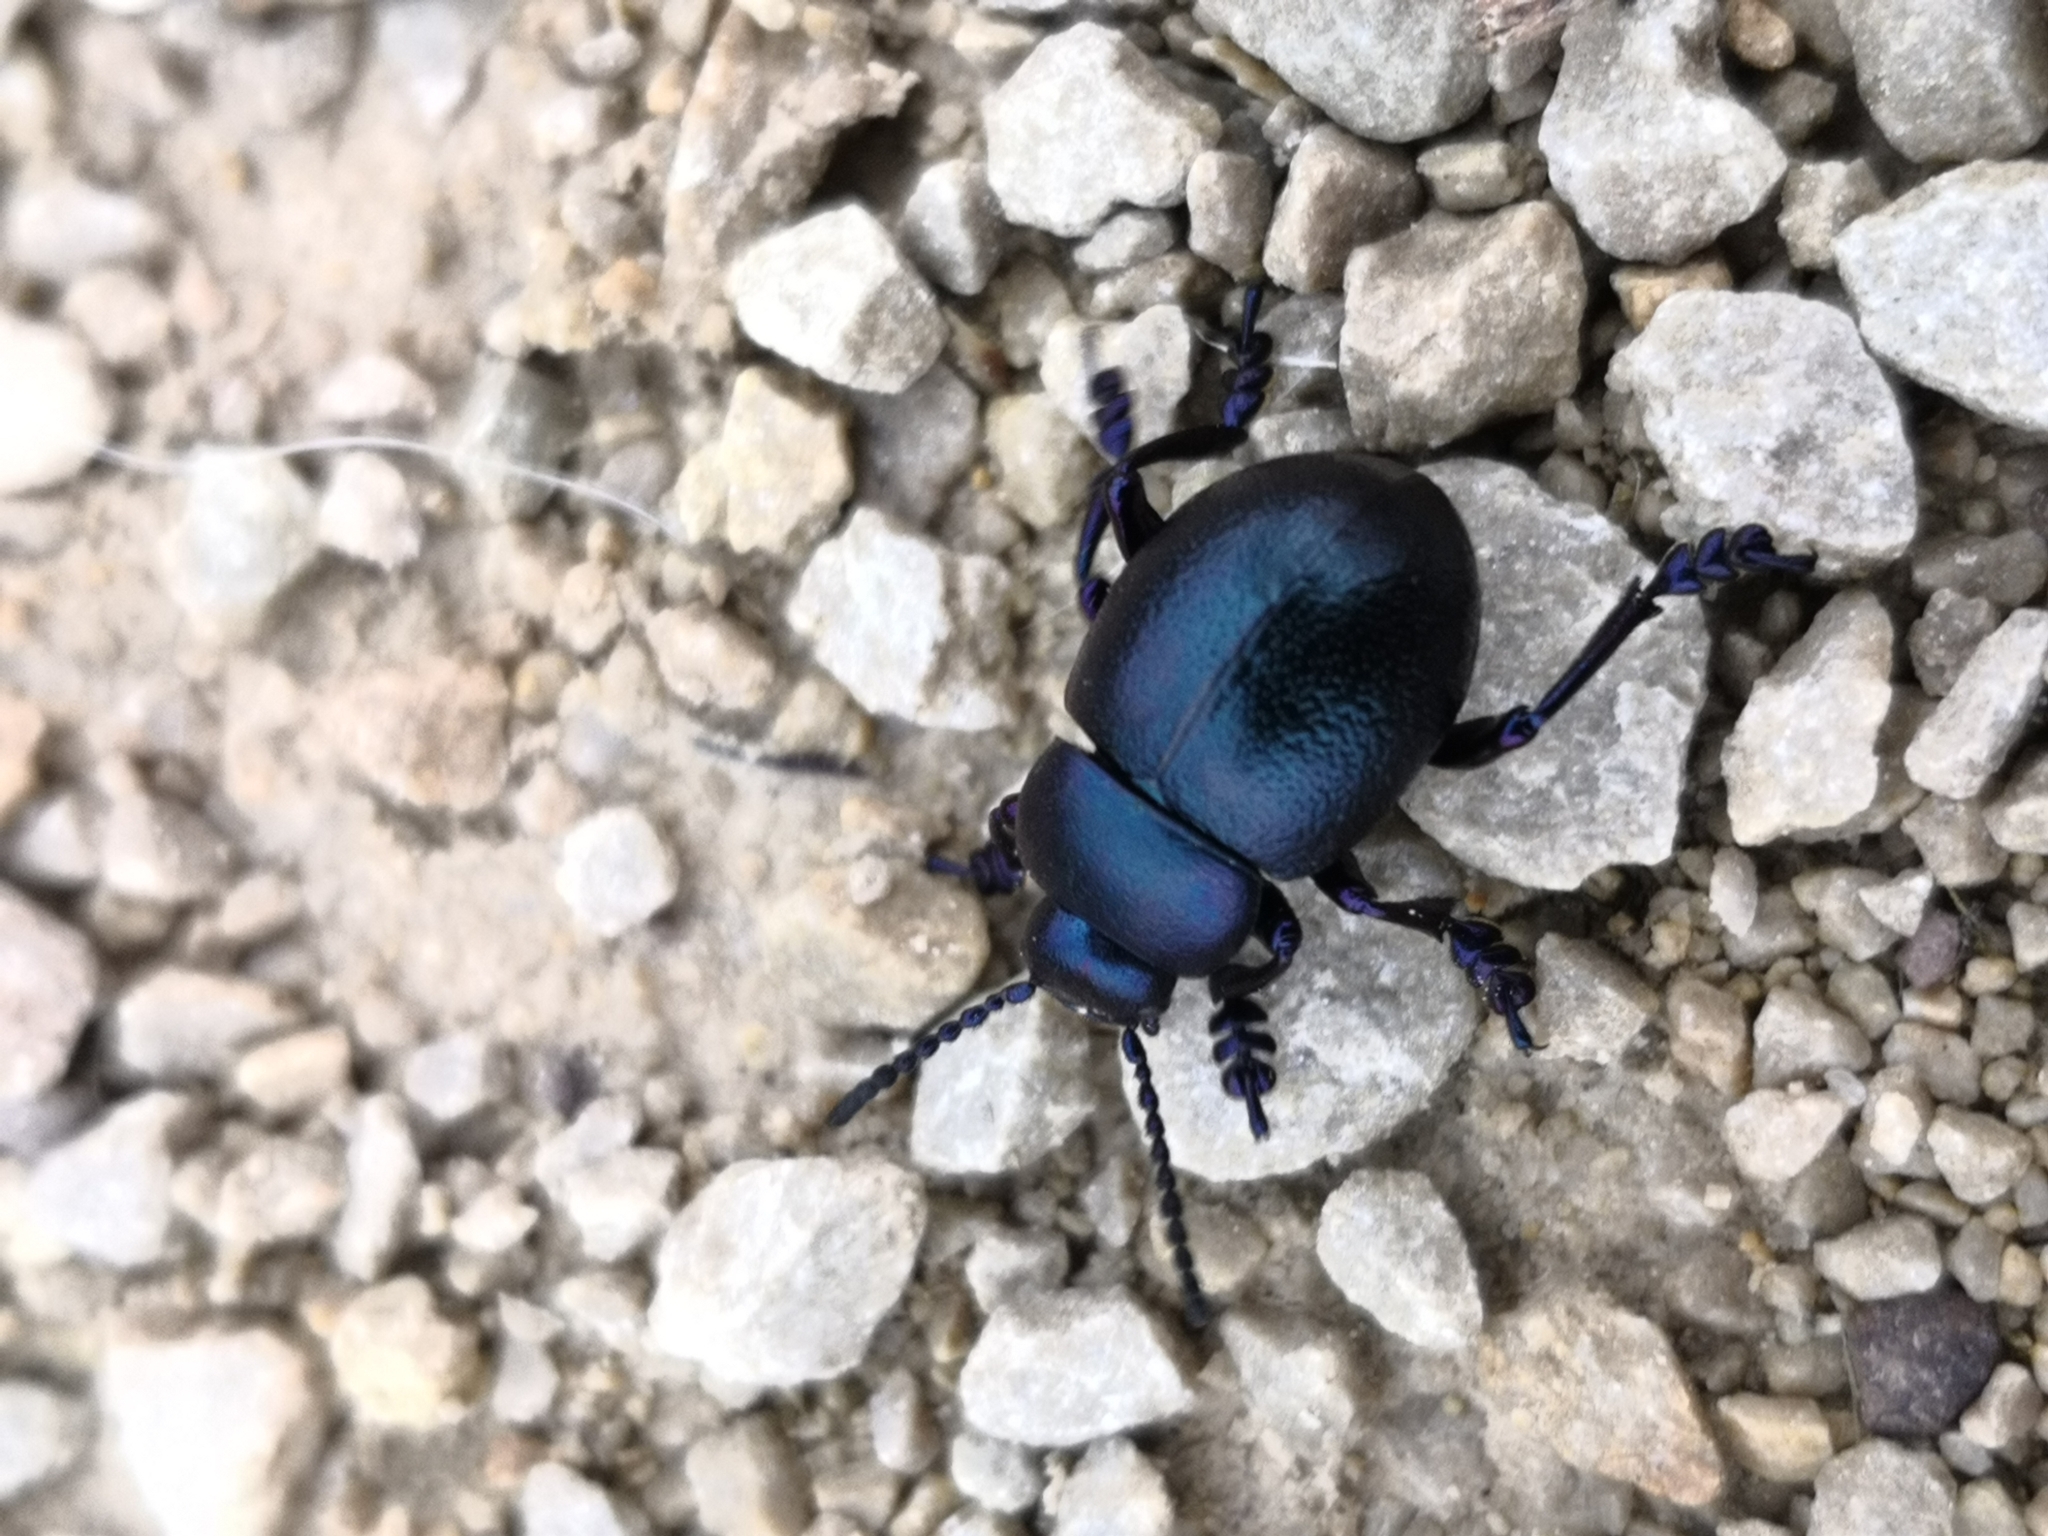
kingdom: Animalia
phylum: Arthropoda
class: Insecta
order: Coleoptera
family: Chrysomelidae
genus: Timarcha
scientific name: Timarcha goettingensis
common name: Small bloody-nosed beetle
